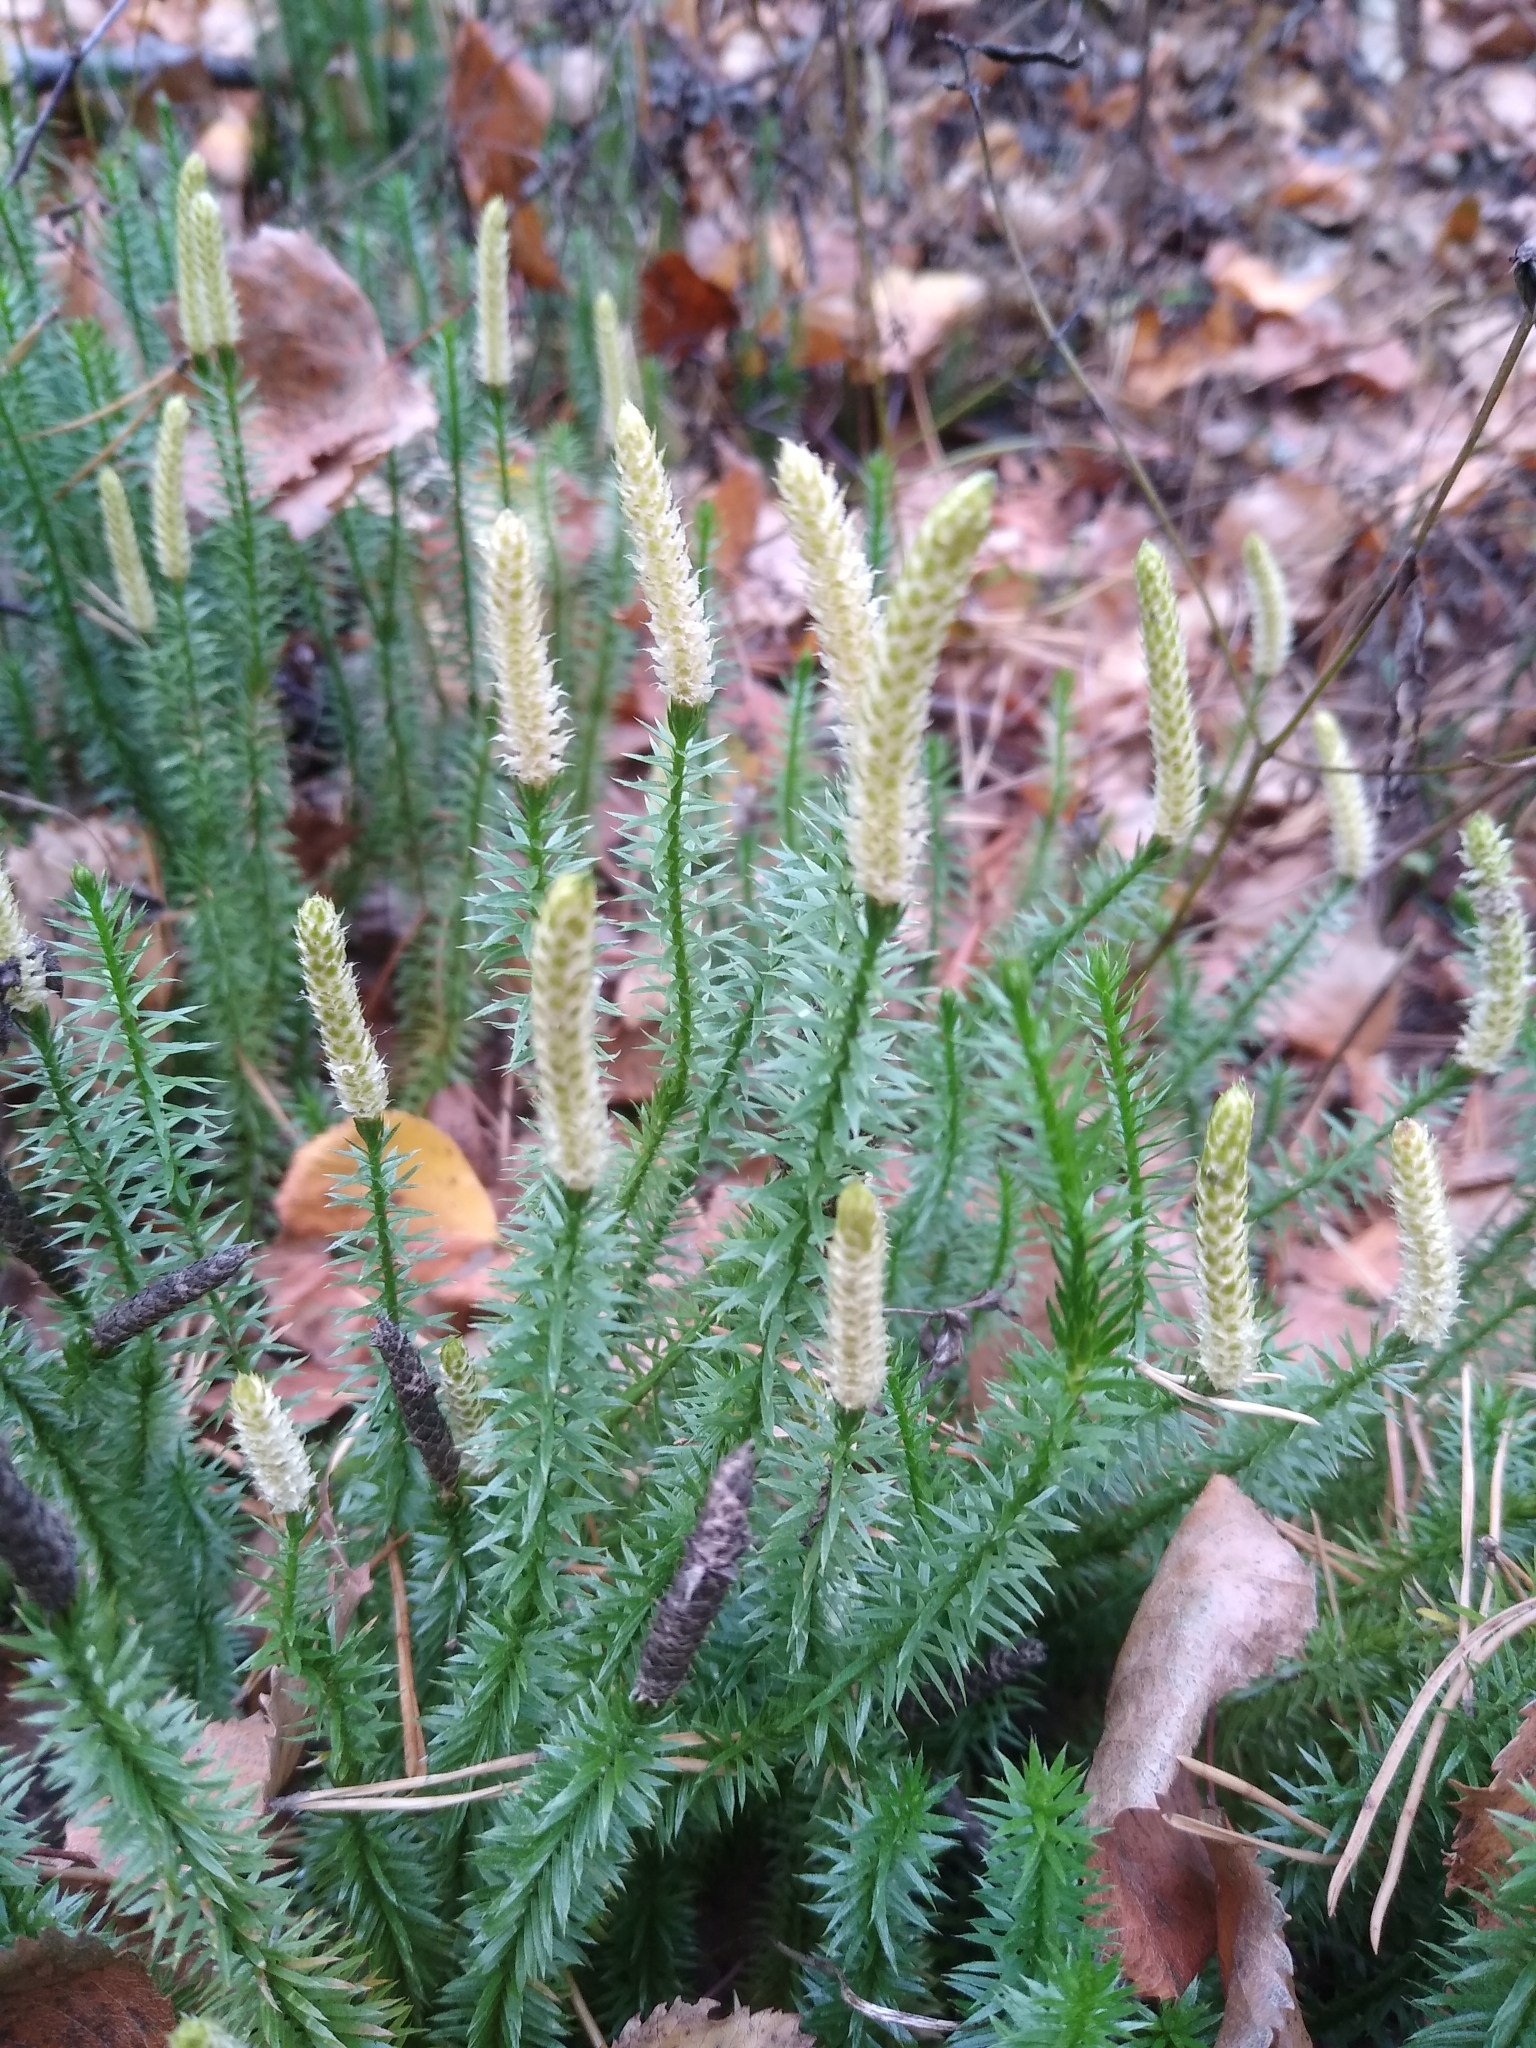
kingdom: Plantae
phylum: Tracheophyta
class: Lycopodiopsida
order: Lycopodiales
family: Lycopodiaceae
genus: Spinulum
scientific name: Spinulum annotinum
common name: Interrupted club-moss
